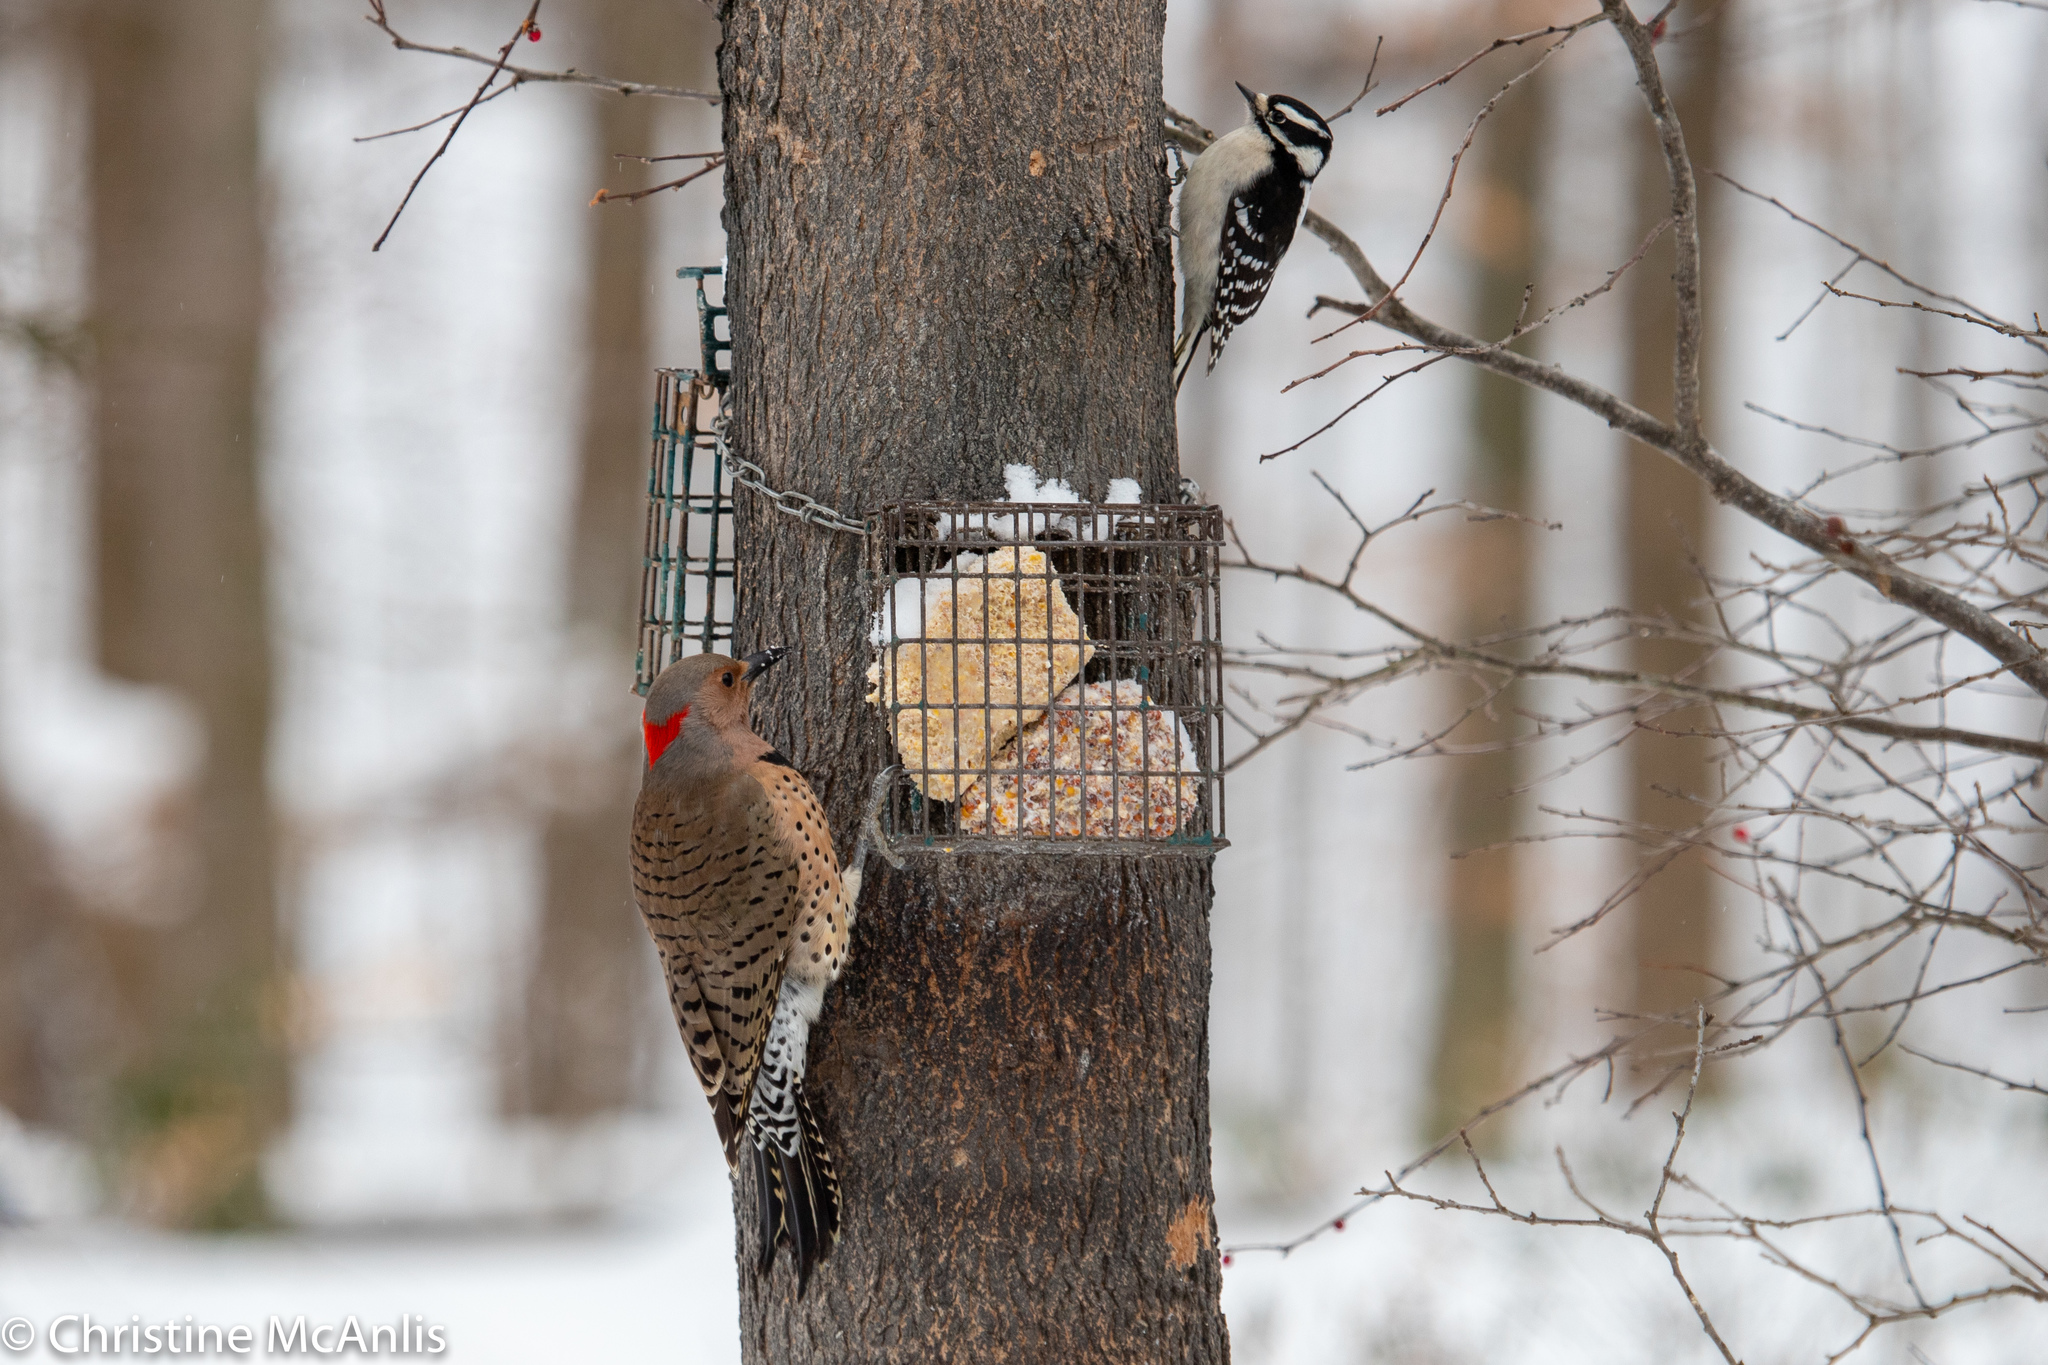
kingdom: Animalia
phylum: Chordata
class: Aves
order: Piciformes
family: Picidae
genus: Colaptes
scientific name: Colaptes auratus
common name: Northern flicker
